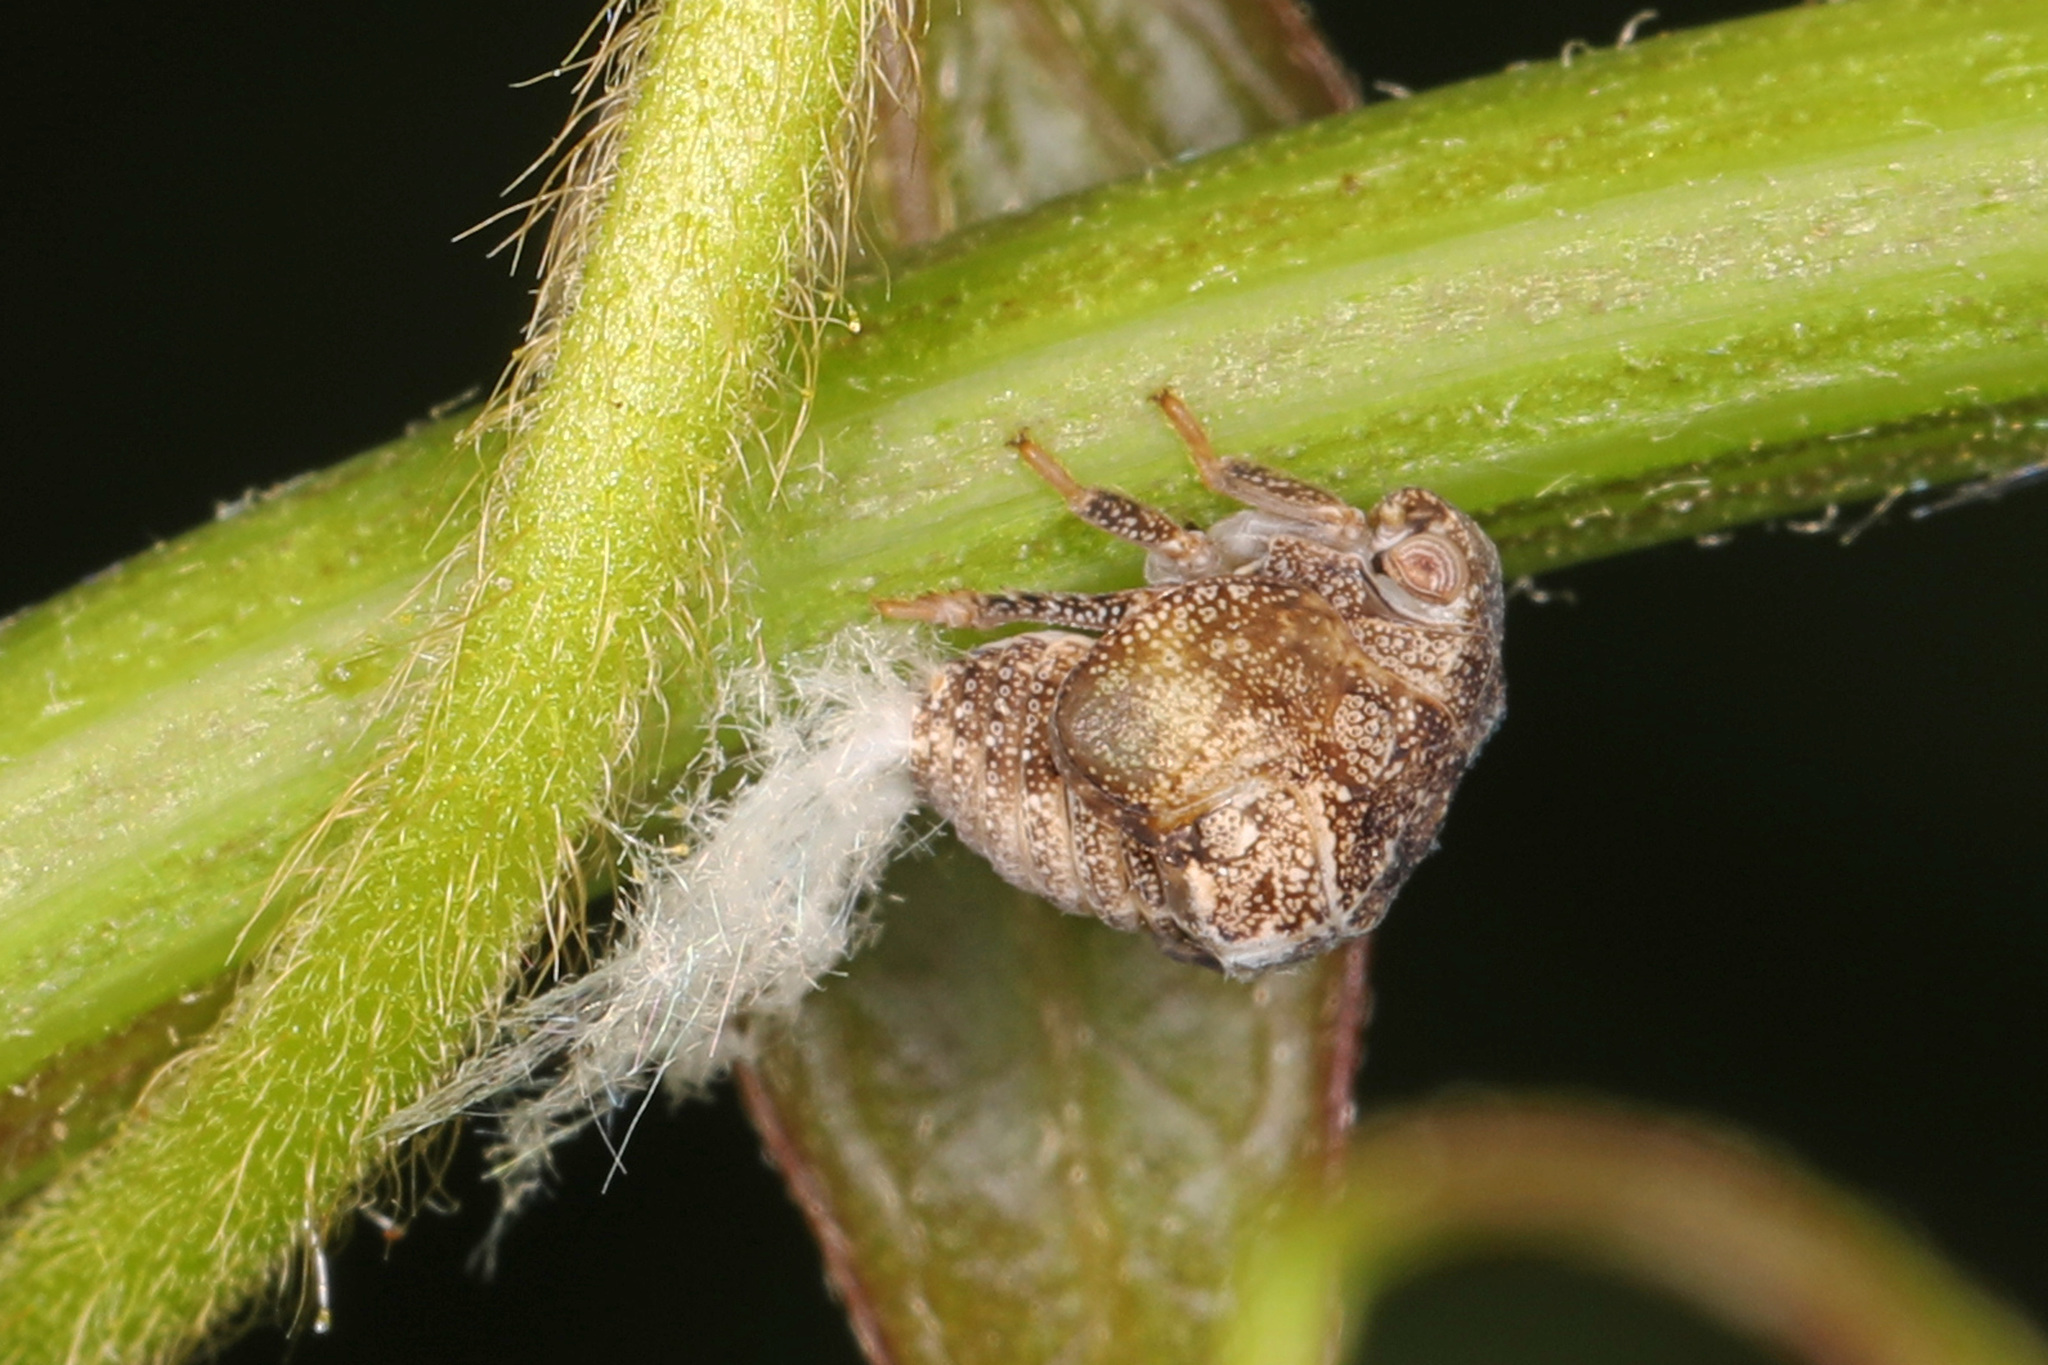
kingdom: Animalia
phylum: Arthropoda
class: Insecta
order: Hemiptera
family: Acanaloniidae
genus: Acanalonia
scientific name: Acanalonia bivittata
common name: Two-striped planthopper
